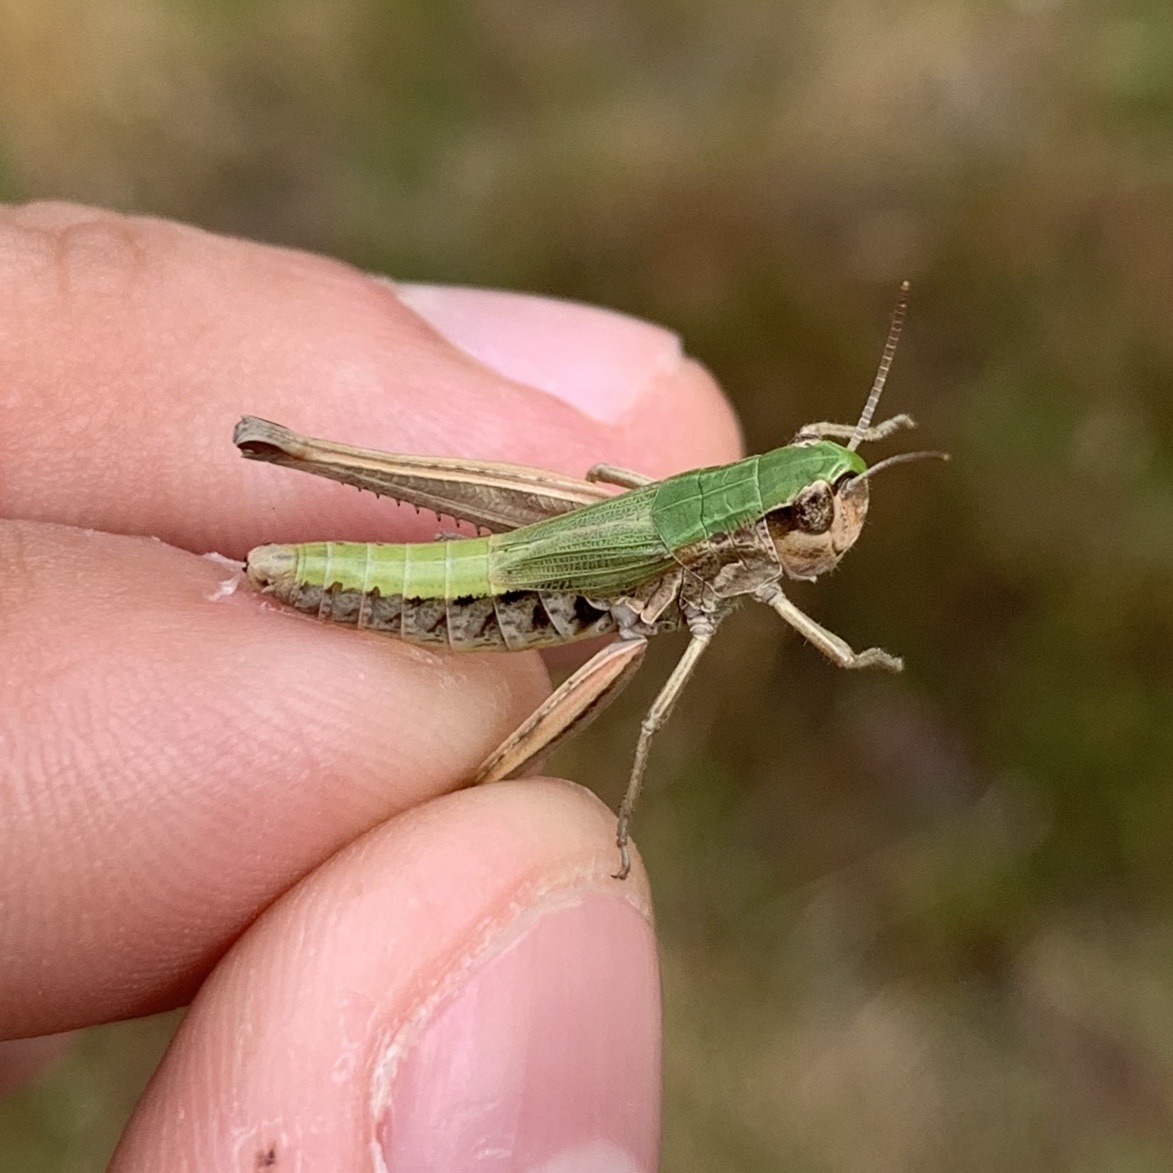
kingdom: Animalia
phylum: Arthropoda
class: Insecta
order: Orthoptera
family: Acrididae
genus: Pseudochorthippus
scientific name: Pseudochorthippus parallelus
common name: Meadow grasshopper
